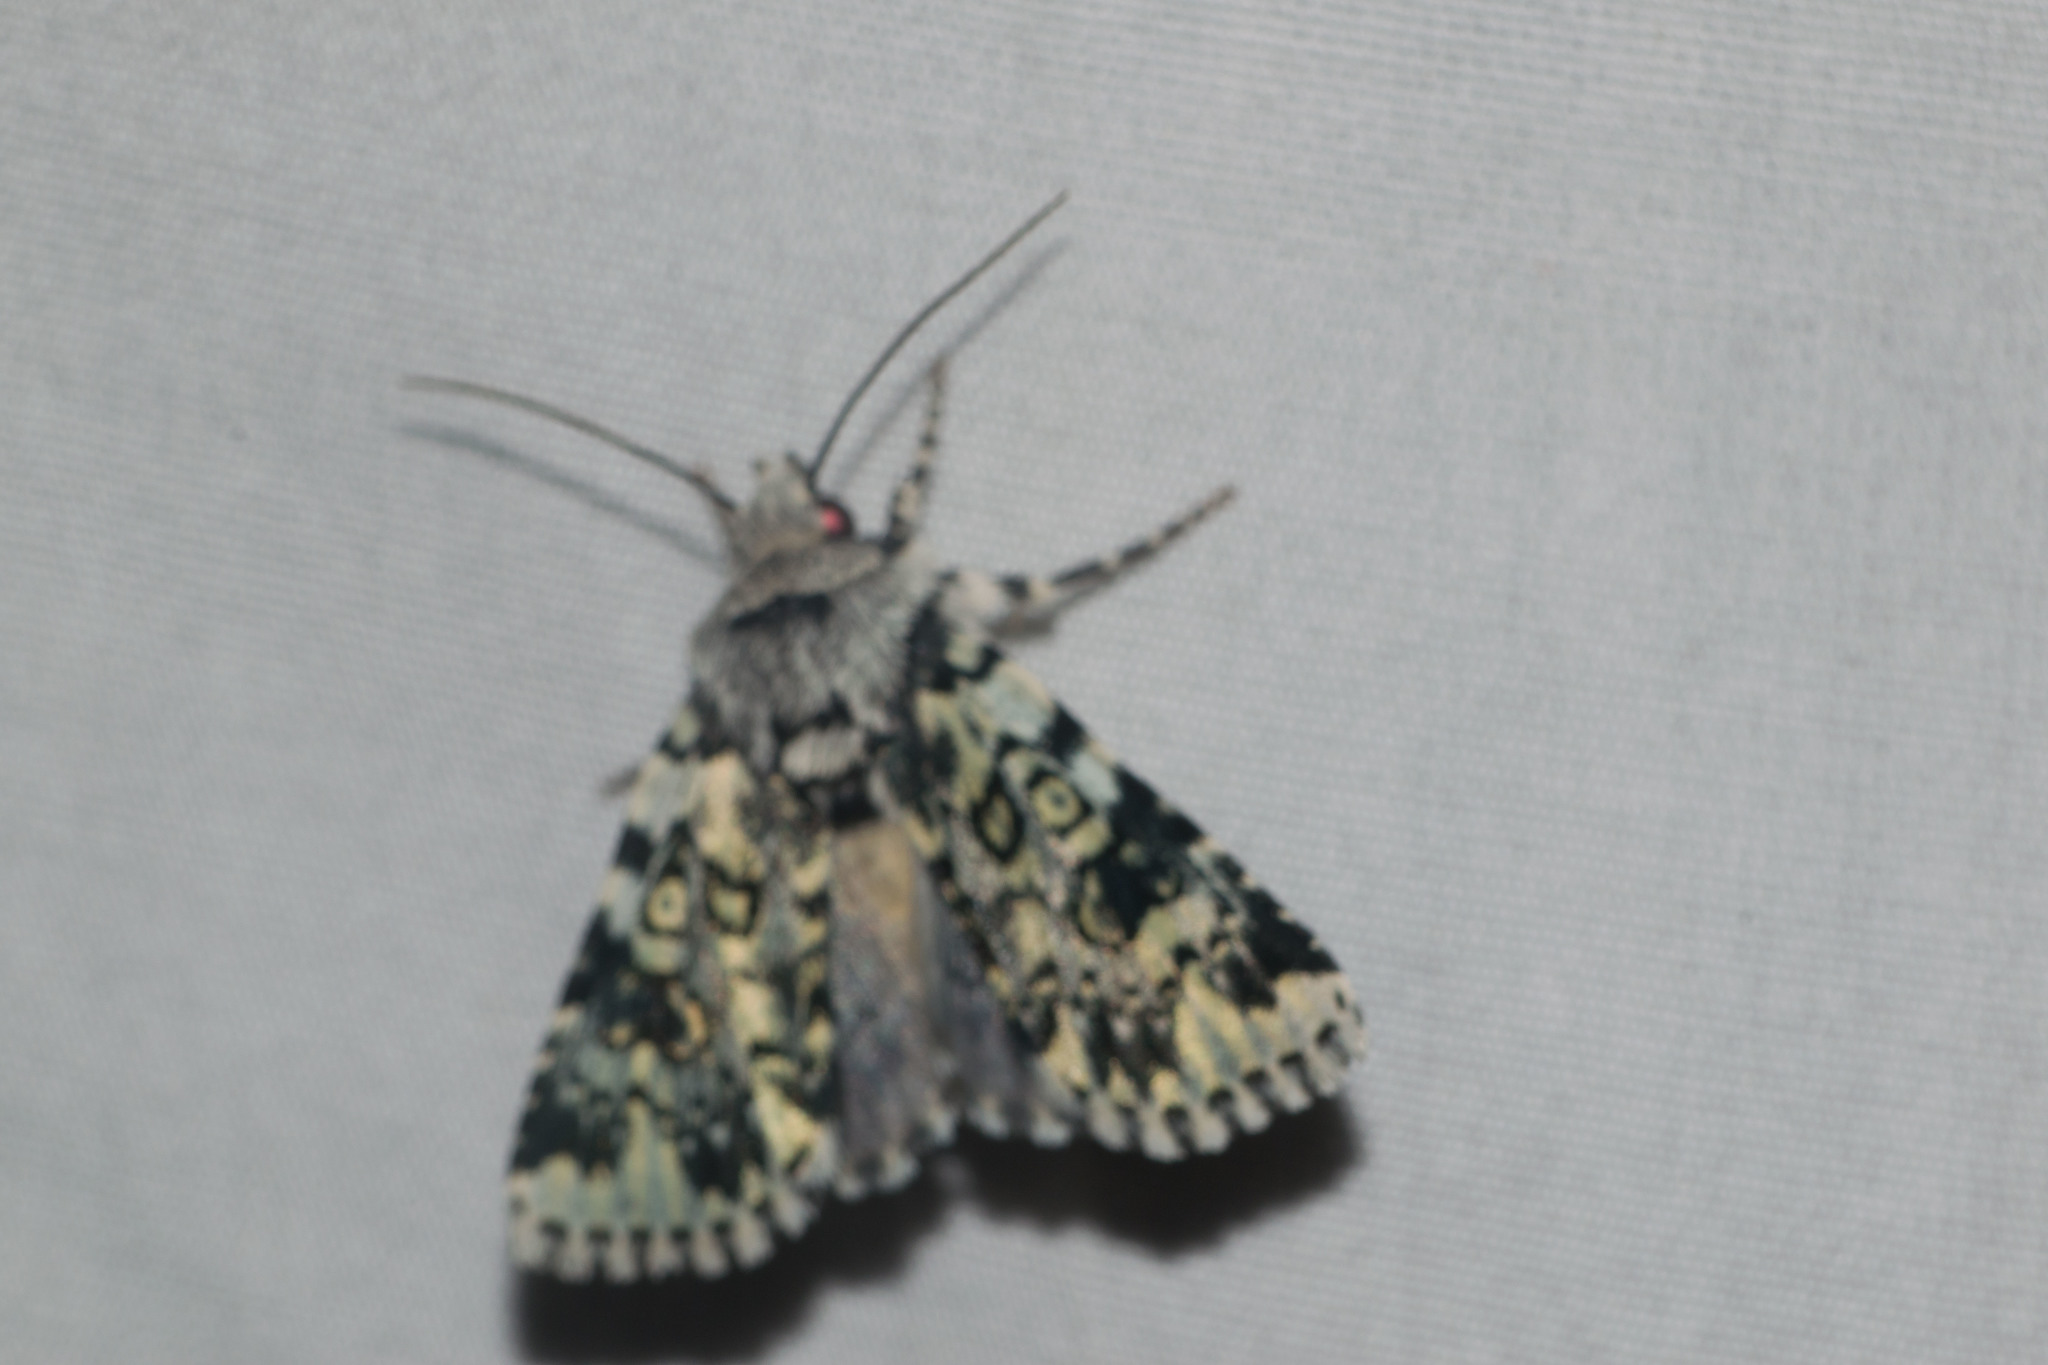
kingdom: Animalia
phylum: Arthropoda
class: Insecta
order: Lepidoptera
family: Noctuidae
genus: Heliothis
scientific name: Heliothis melanoleuca
